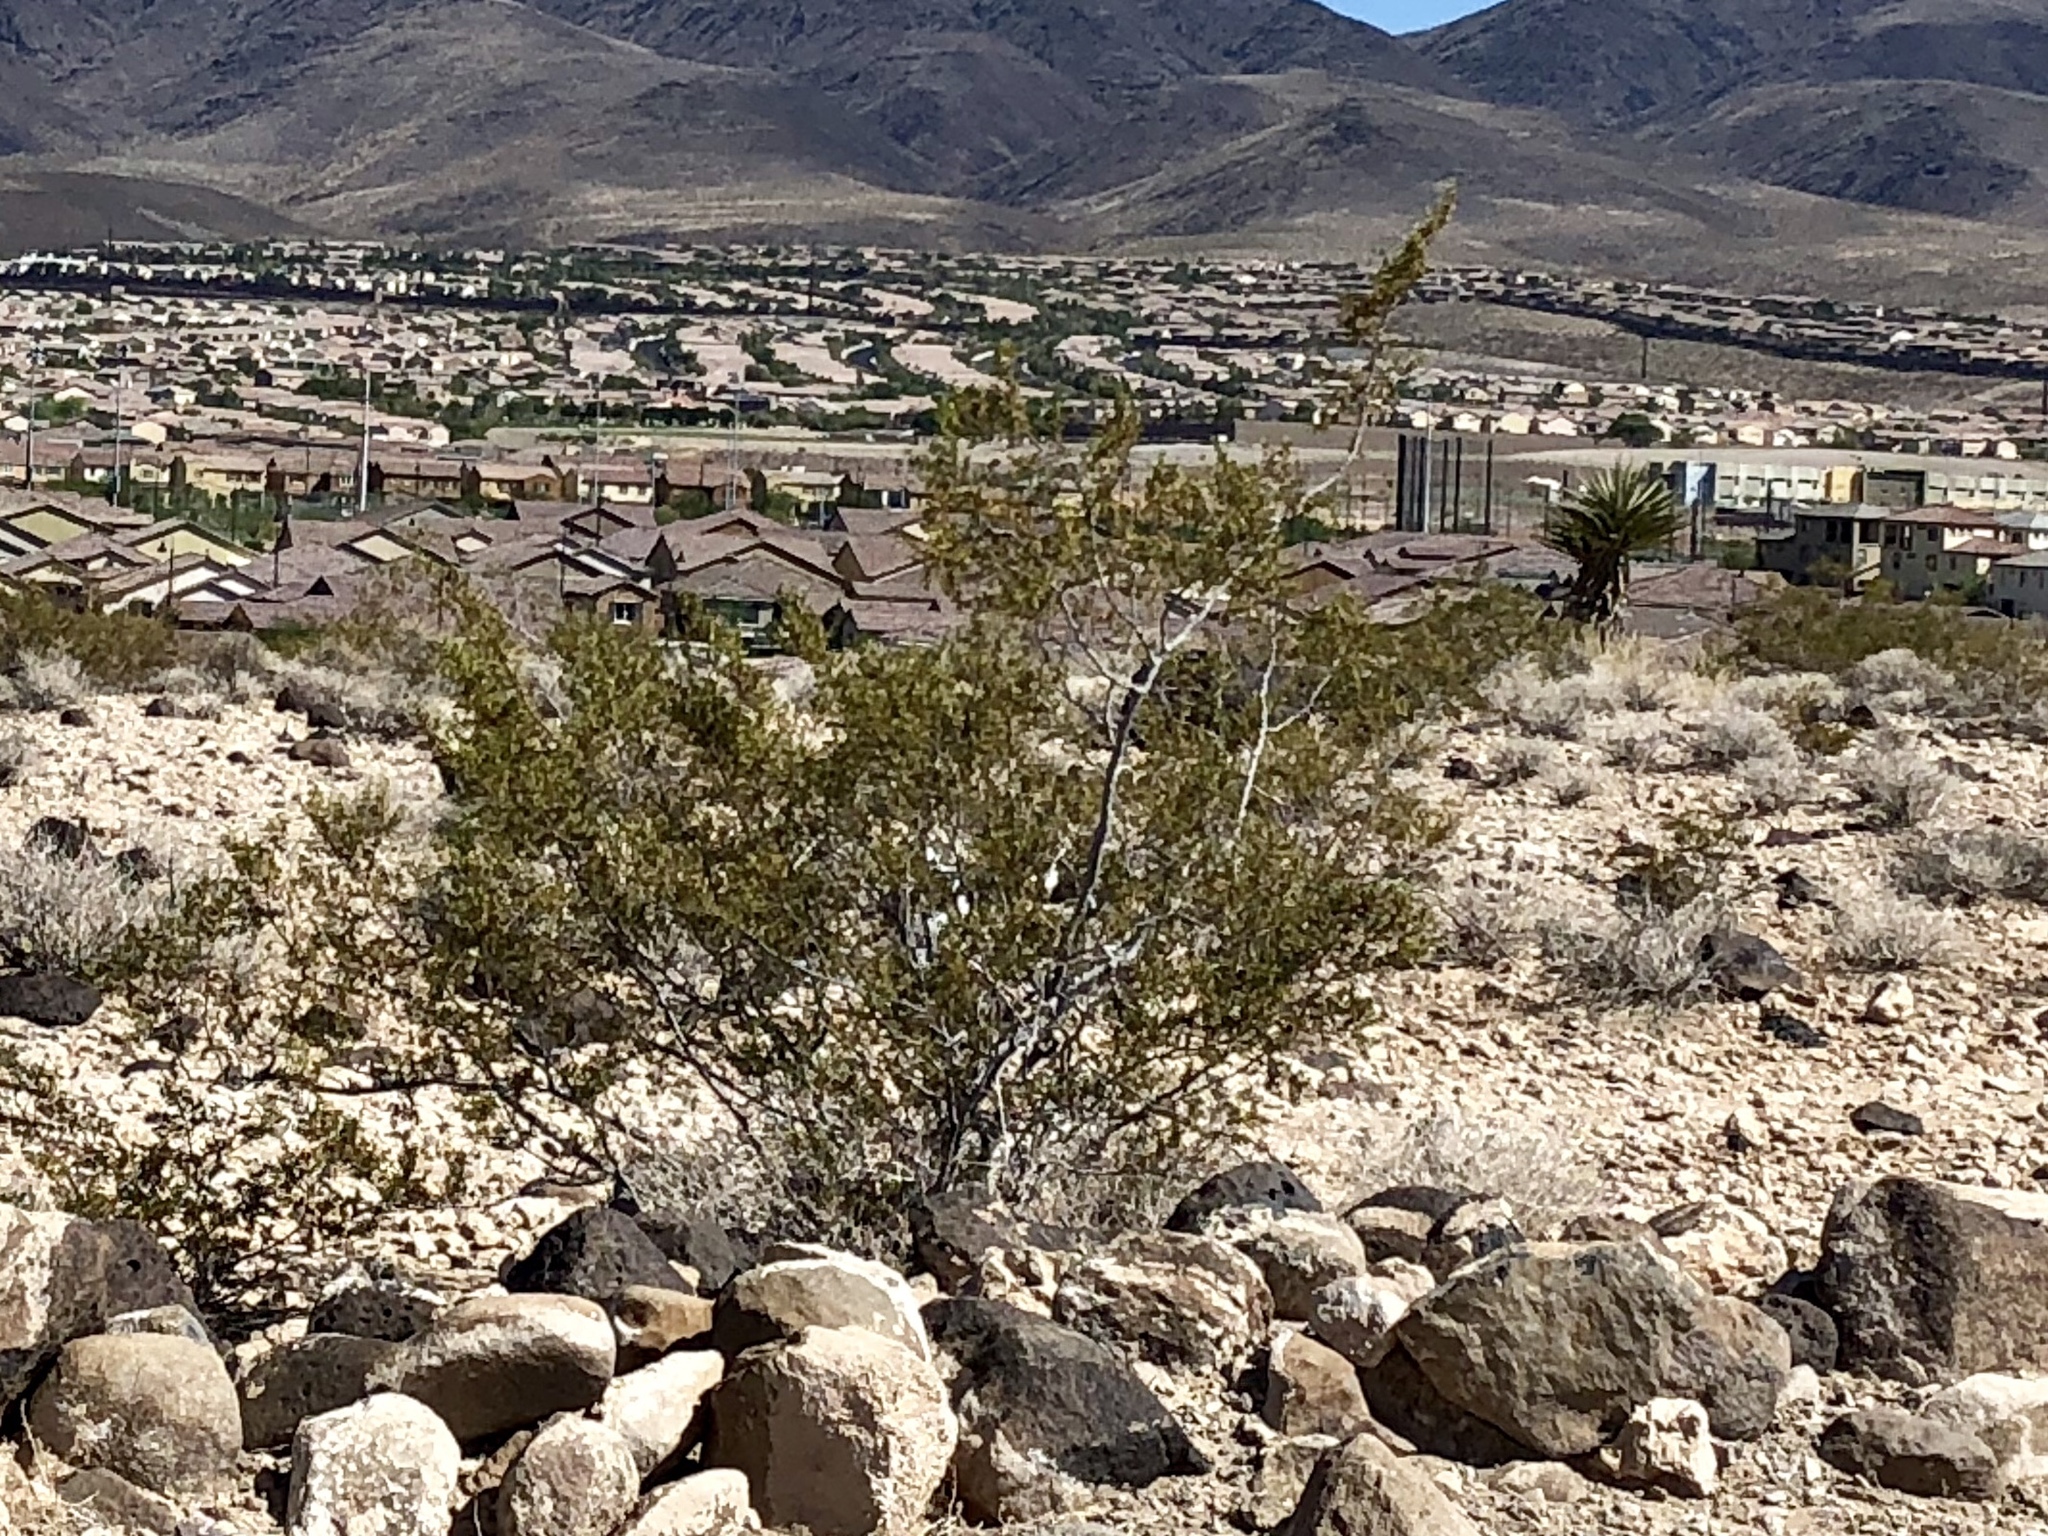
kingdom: Plantae
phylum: Tracheophyta
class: Magnoliopsida
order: Zygophyllales
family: Zygophyllaceae
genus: Larrea
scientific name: Larrea tridentata
